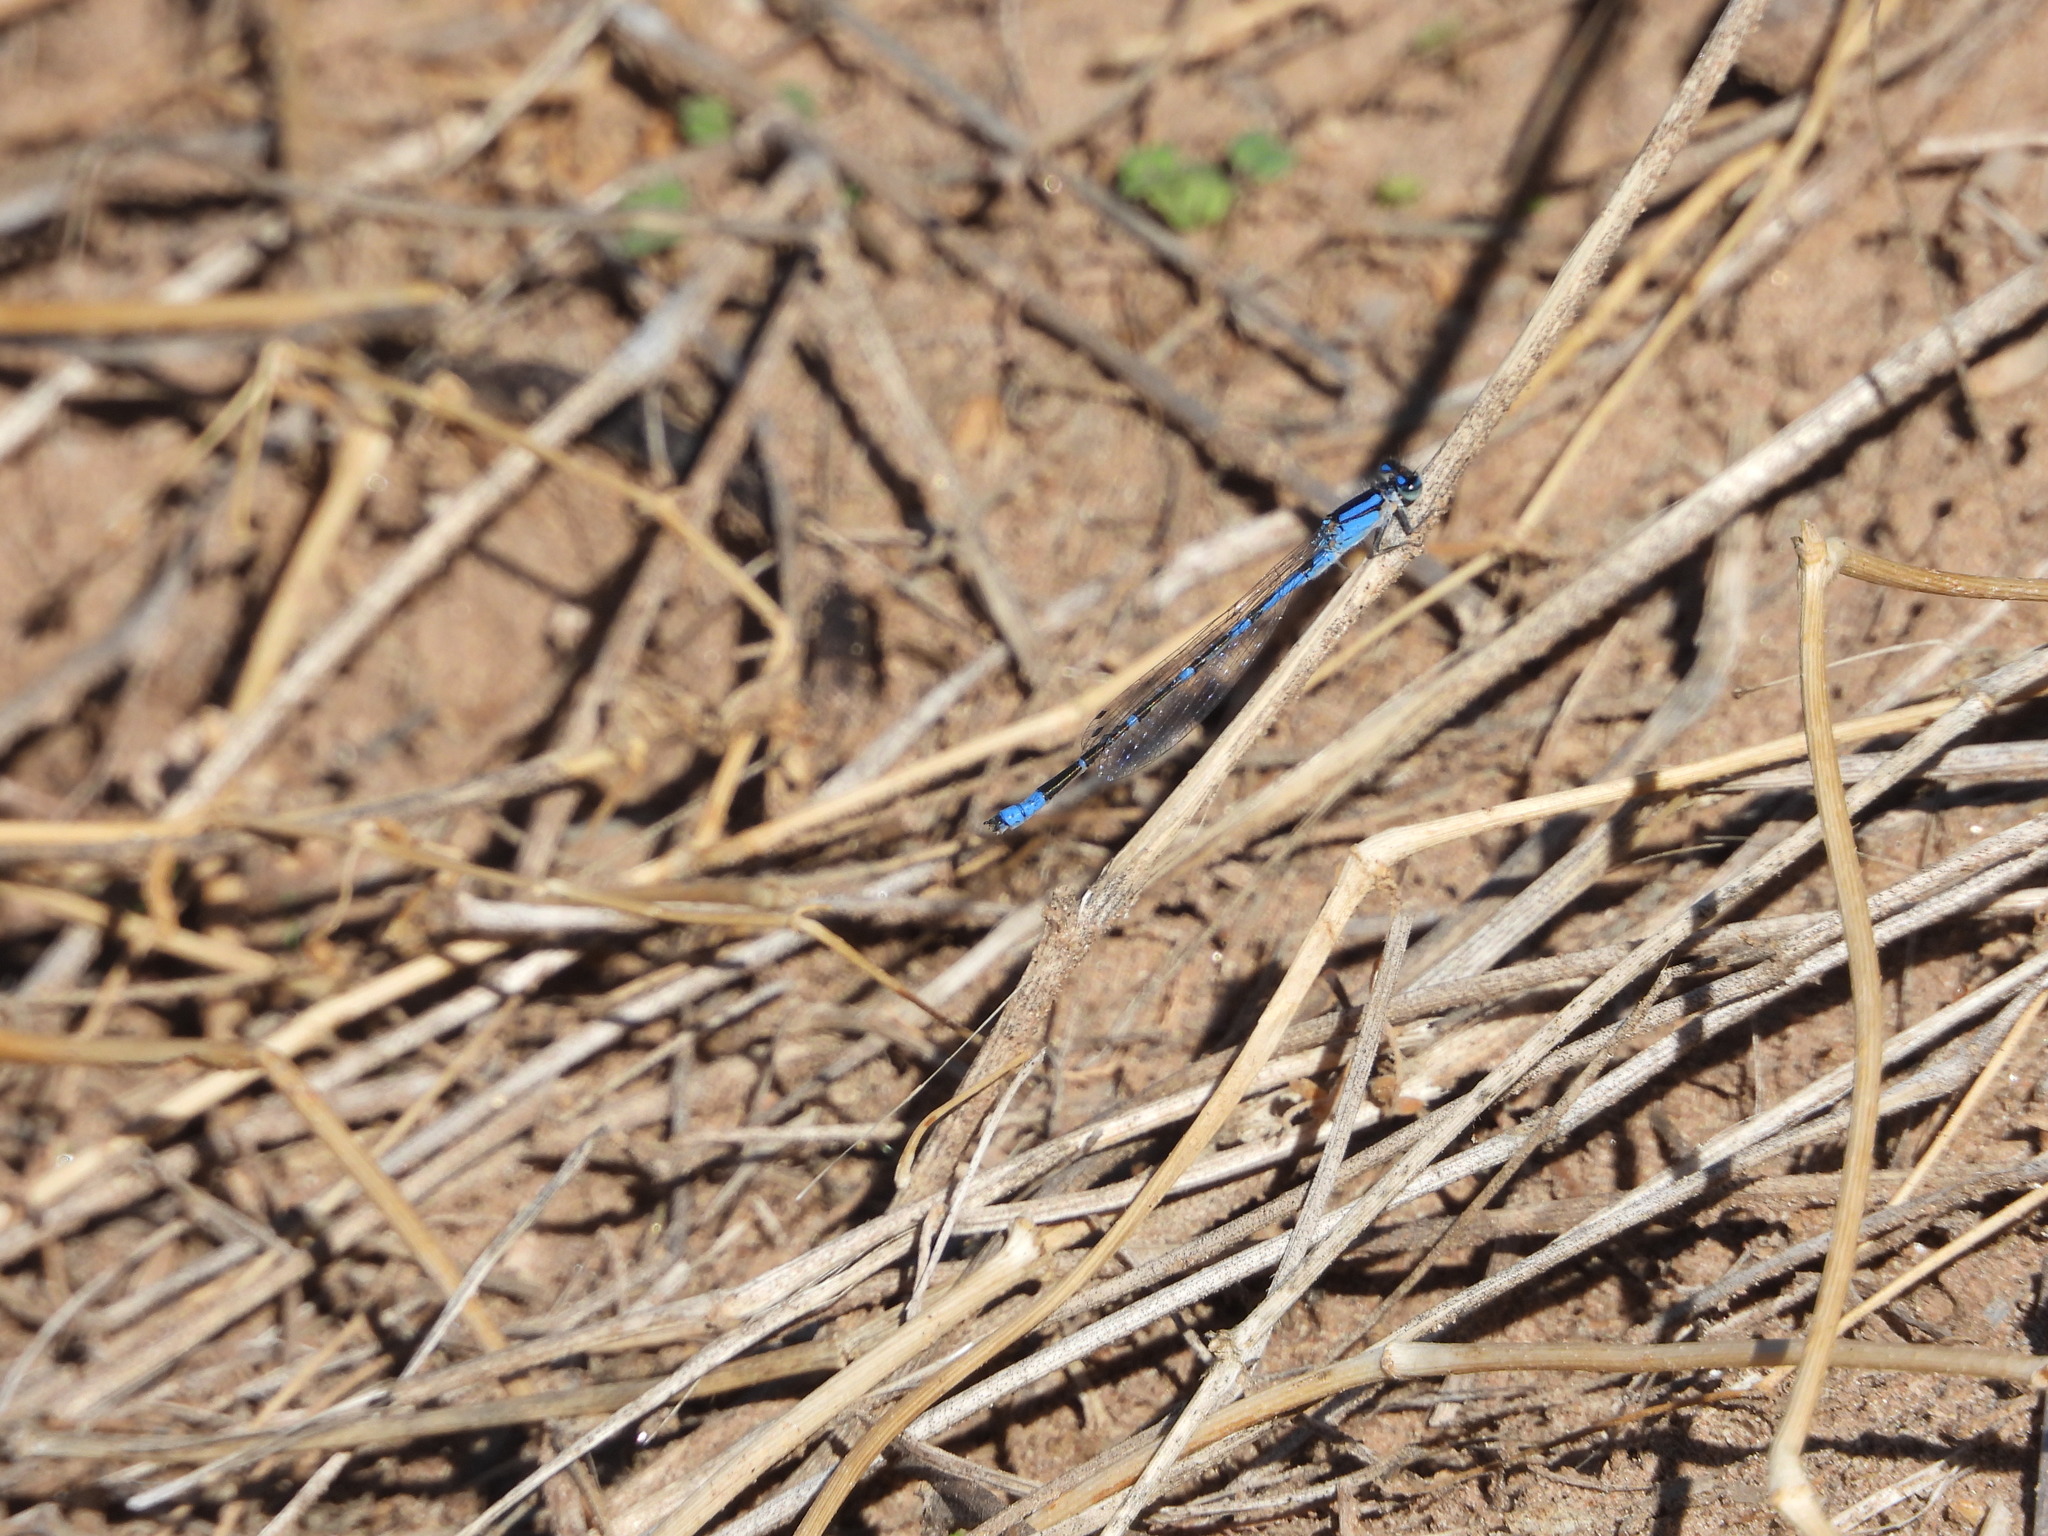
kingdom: Animalia
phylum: Arthropoda
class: Insecta
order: Odonata
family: Coenagrionidae
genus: Enallagma
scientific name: Enallagma praevarum
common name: Arroyo bluet
